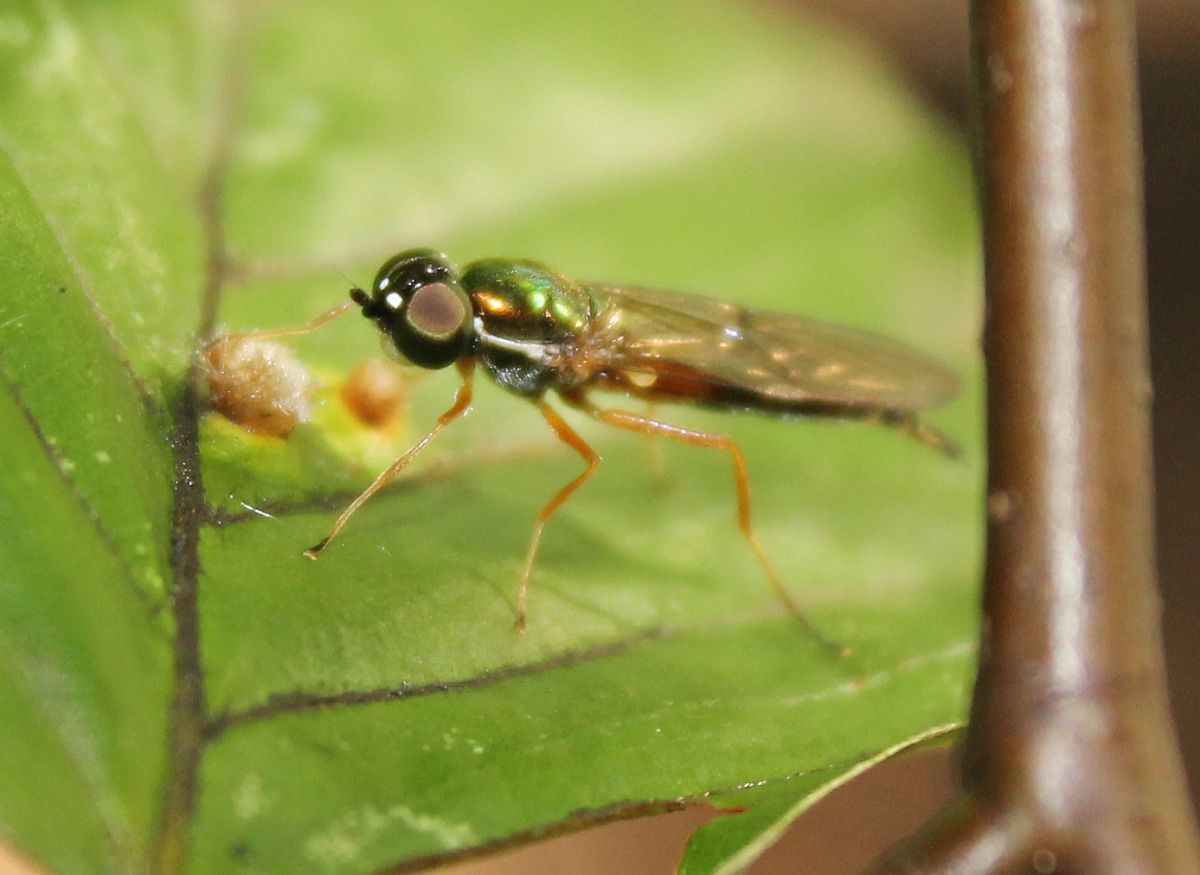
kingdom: Animalia
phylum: Arthropoda
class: Insecta
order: Diptera
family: Stratiomyidae
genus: Sargus
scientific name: Sargus bipunctatus
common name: Twin-spot centurion
